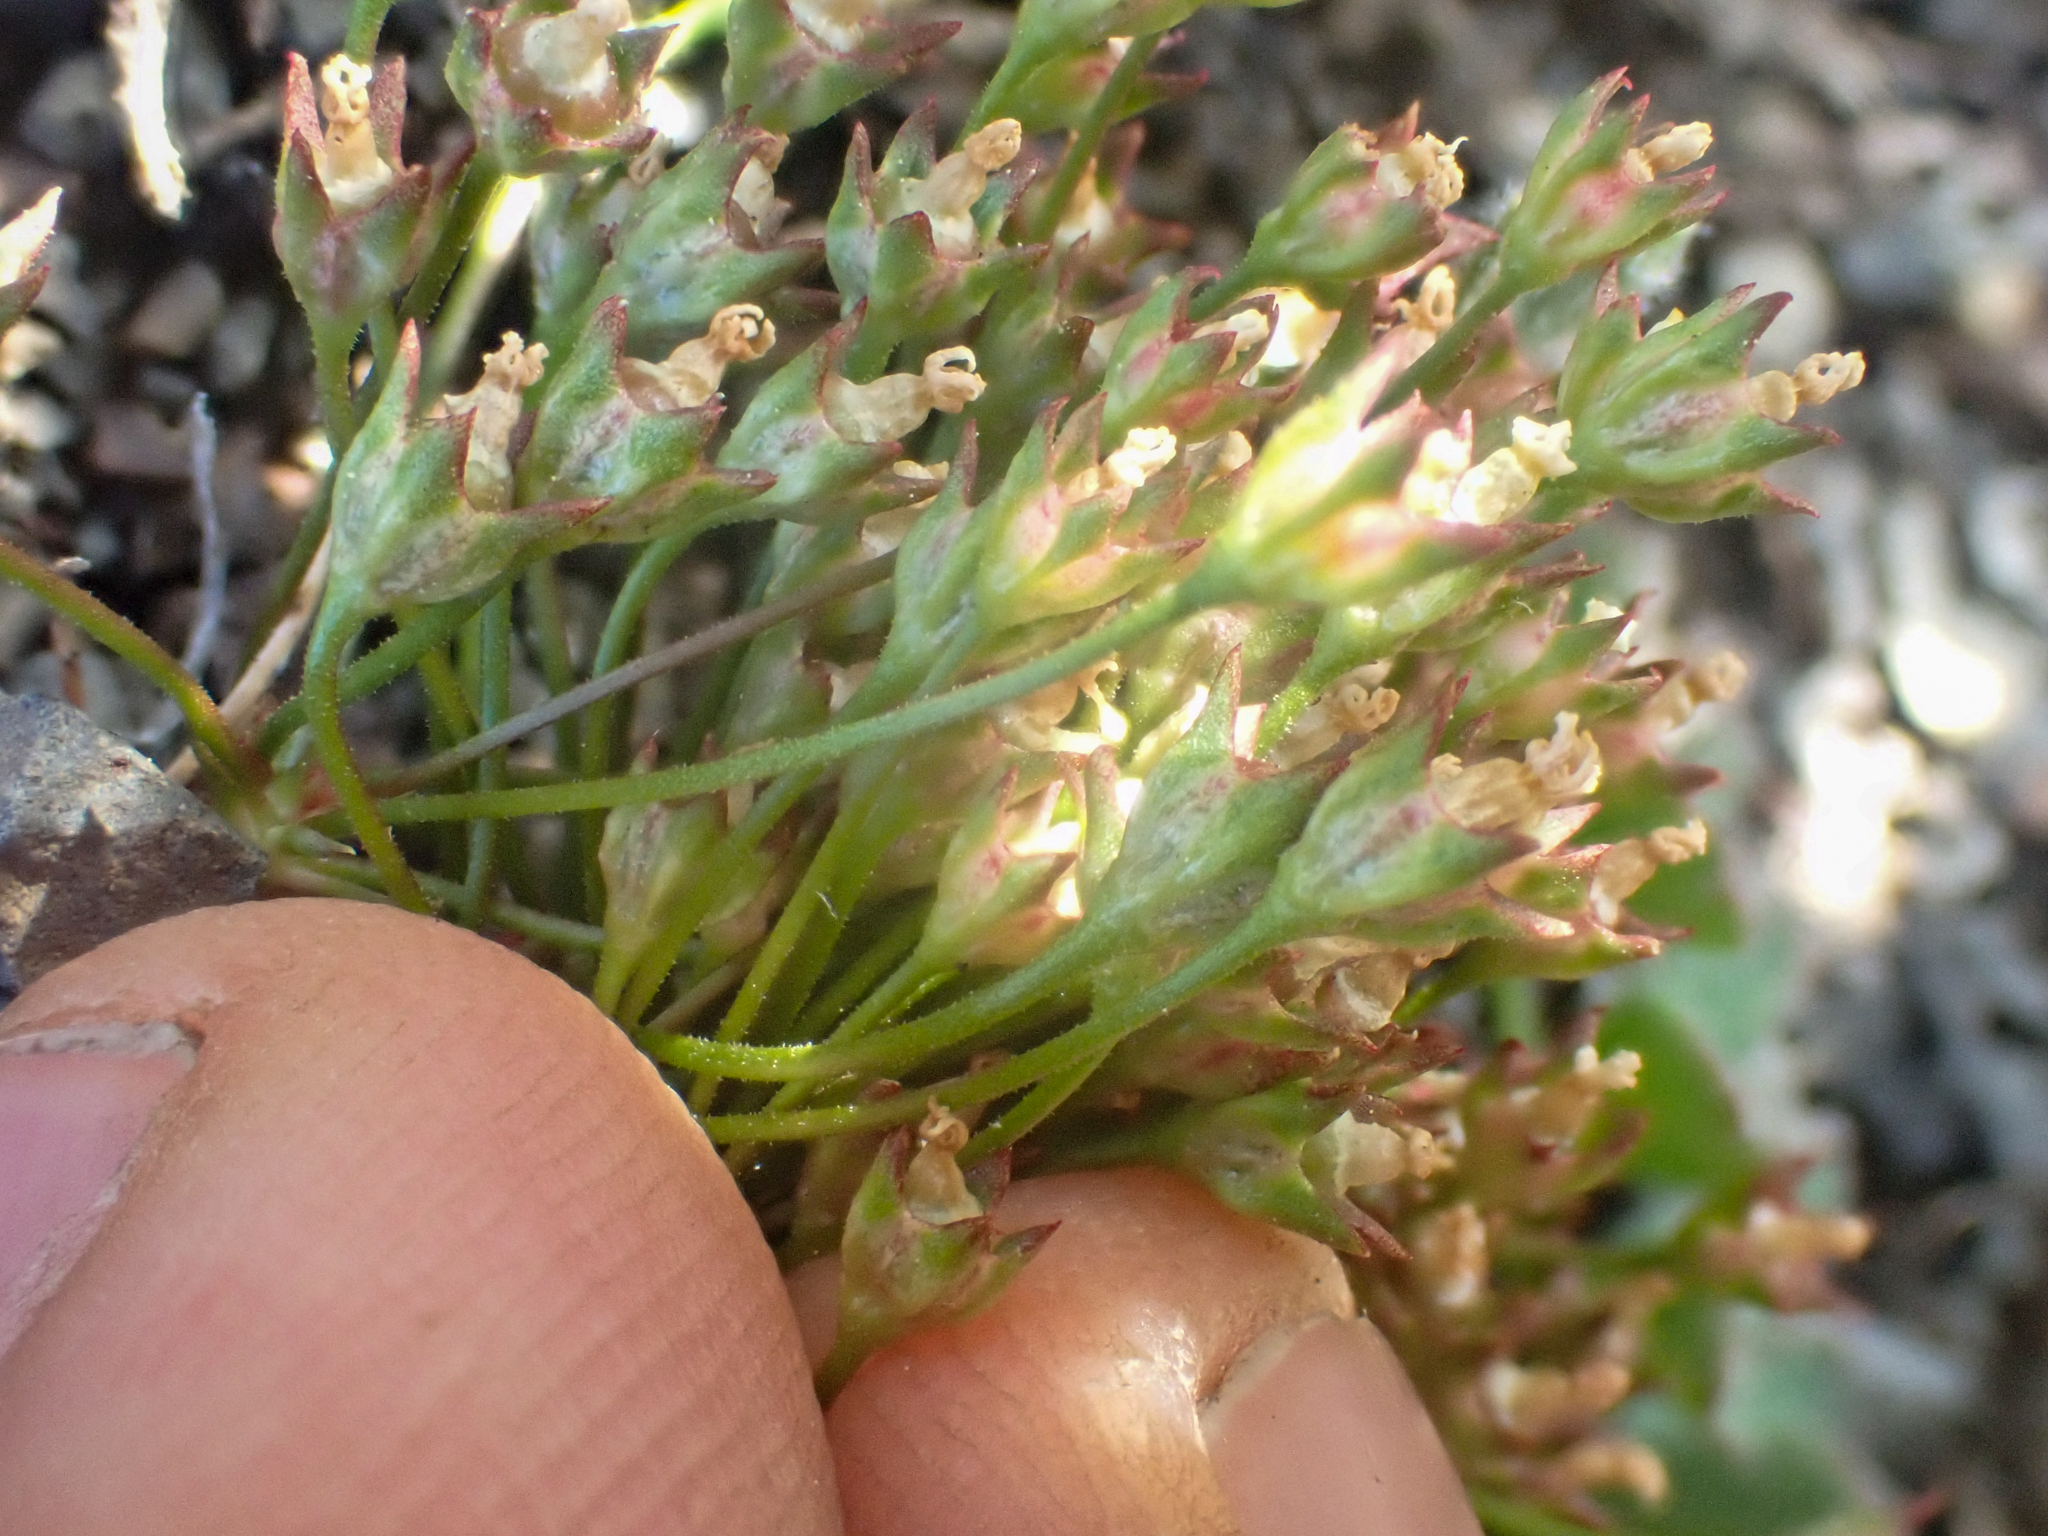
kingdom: Plantae
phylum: Tracheophyta
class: Magnoliopsida
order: Ericales
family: Primulaceae
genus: Androsace
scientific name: Androsace septentrionalis
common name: Hairy northern fairy-candelabra
